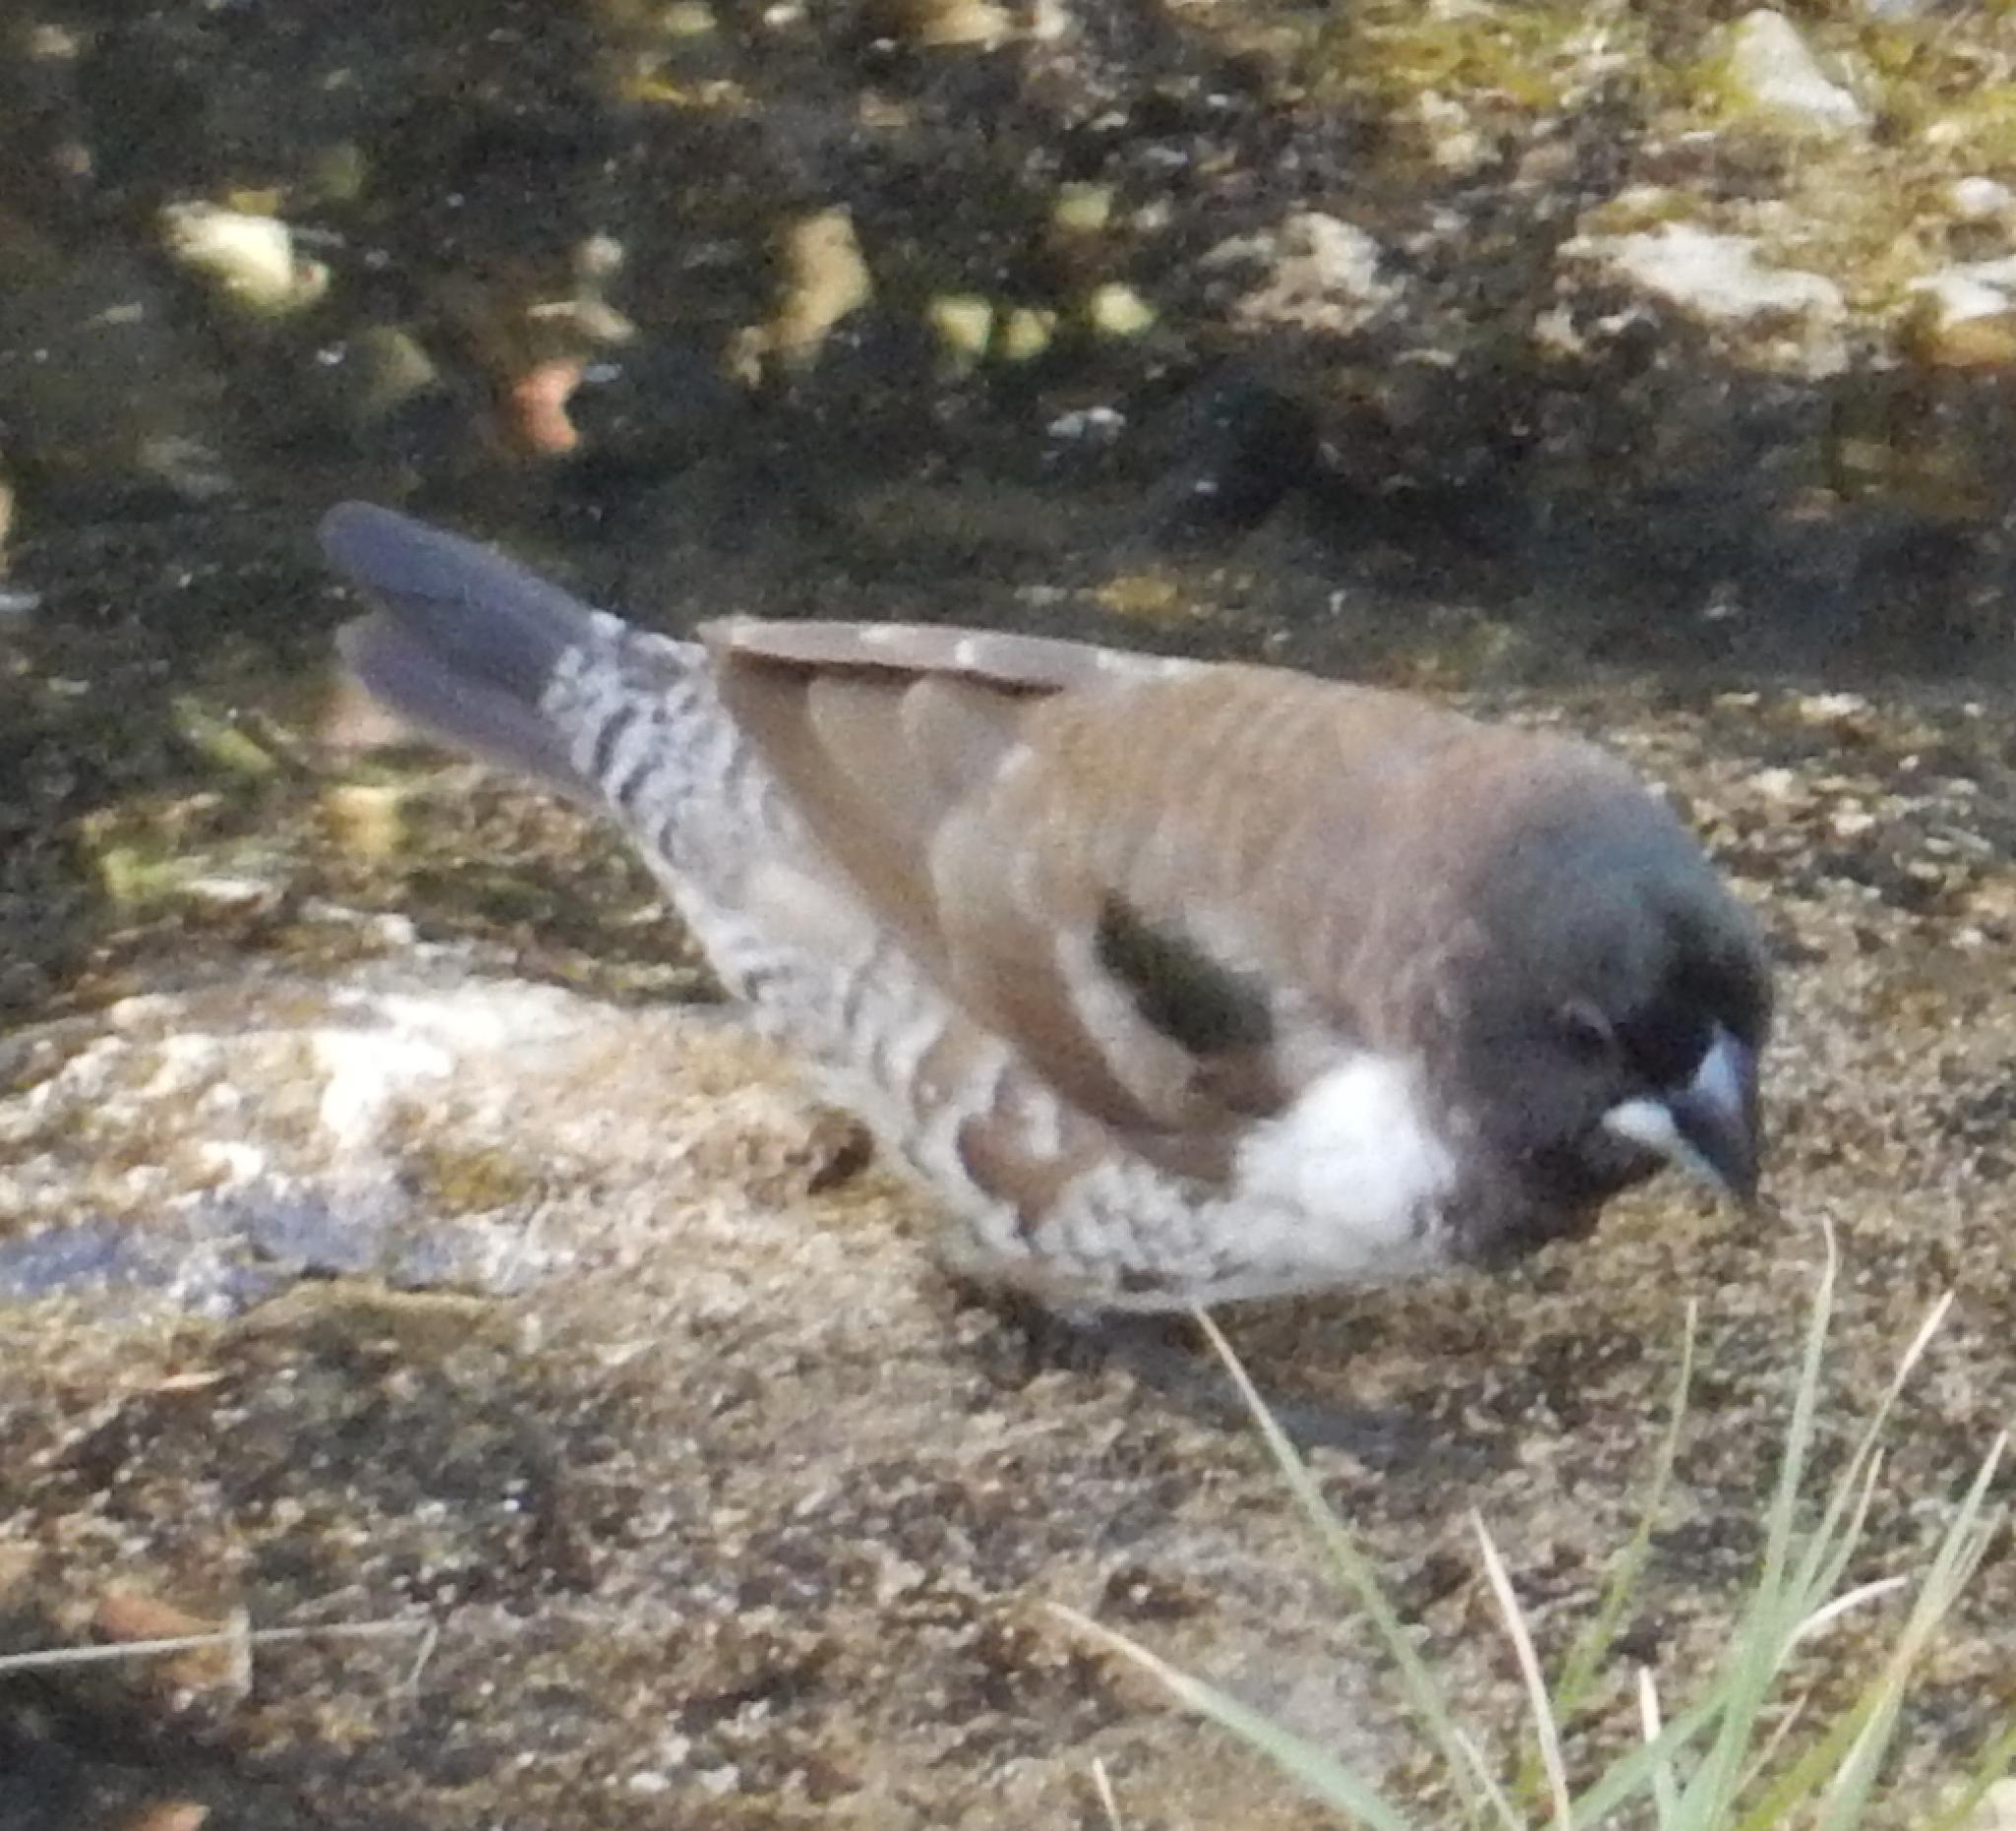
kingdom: Animalia
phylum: Chordata
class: Aves
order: Passeriformes
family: Estrildidae
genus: Lonchura
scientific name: Lonchura cucullata
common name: Bronze mannikin
